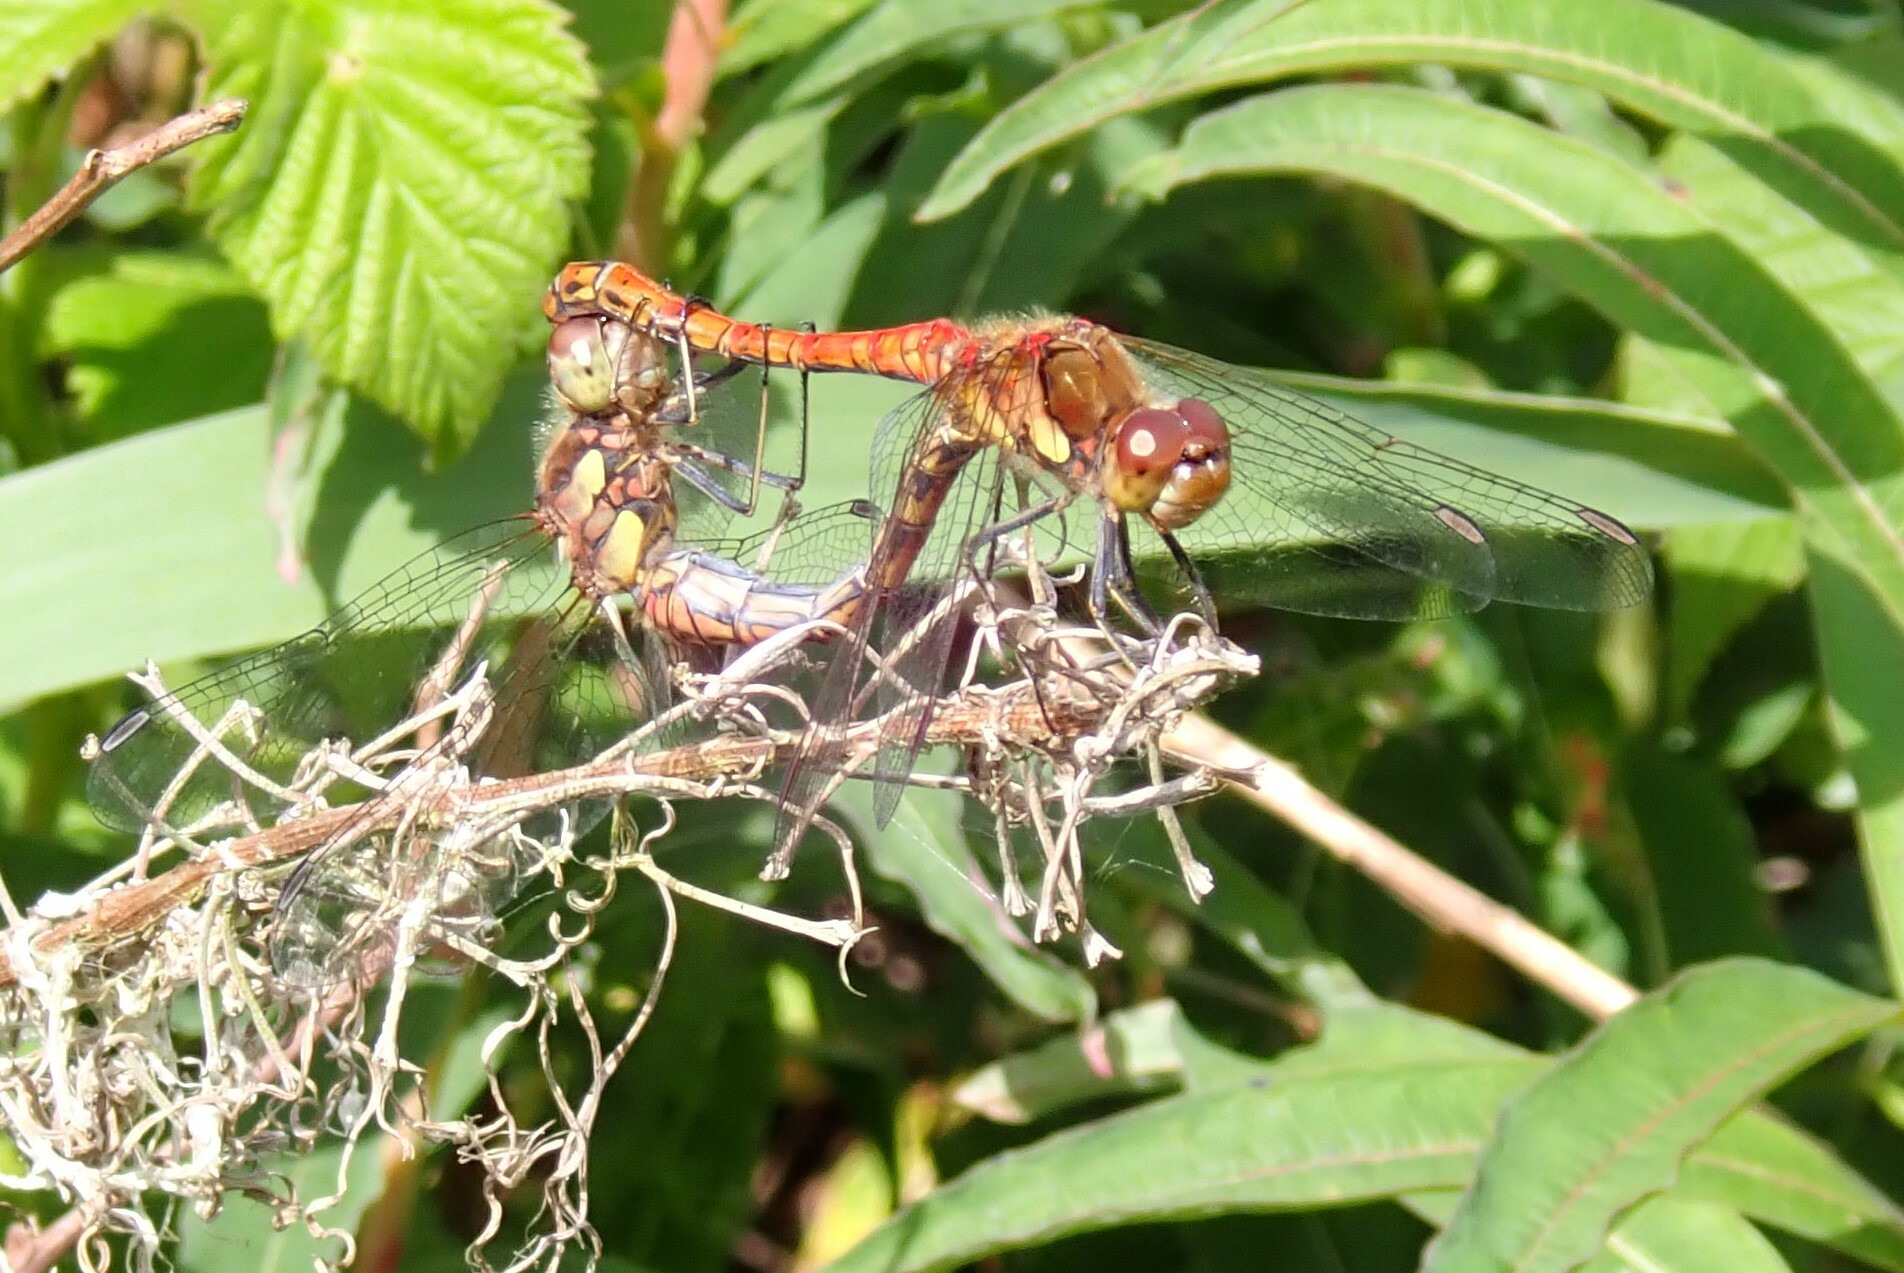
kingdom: Animalia
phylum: Arthropoda
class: Insecta
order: Odonata
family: Libellulidae
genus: Sympetrum
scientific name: Sympetrum striolatum
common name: Common darter
